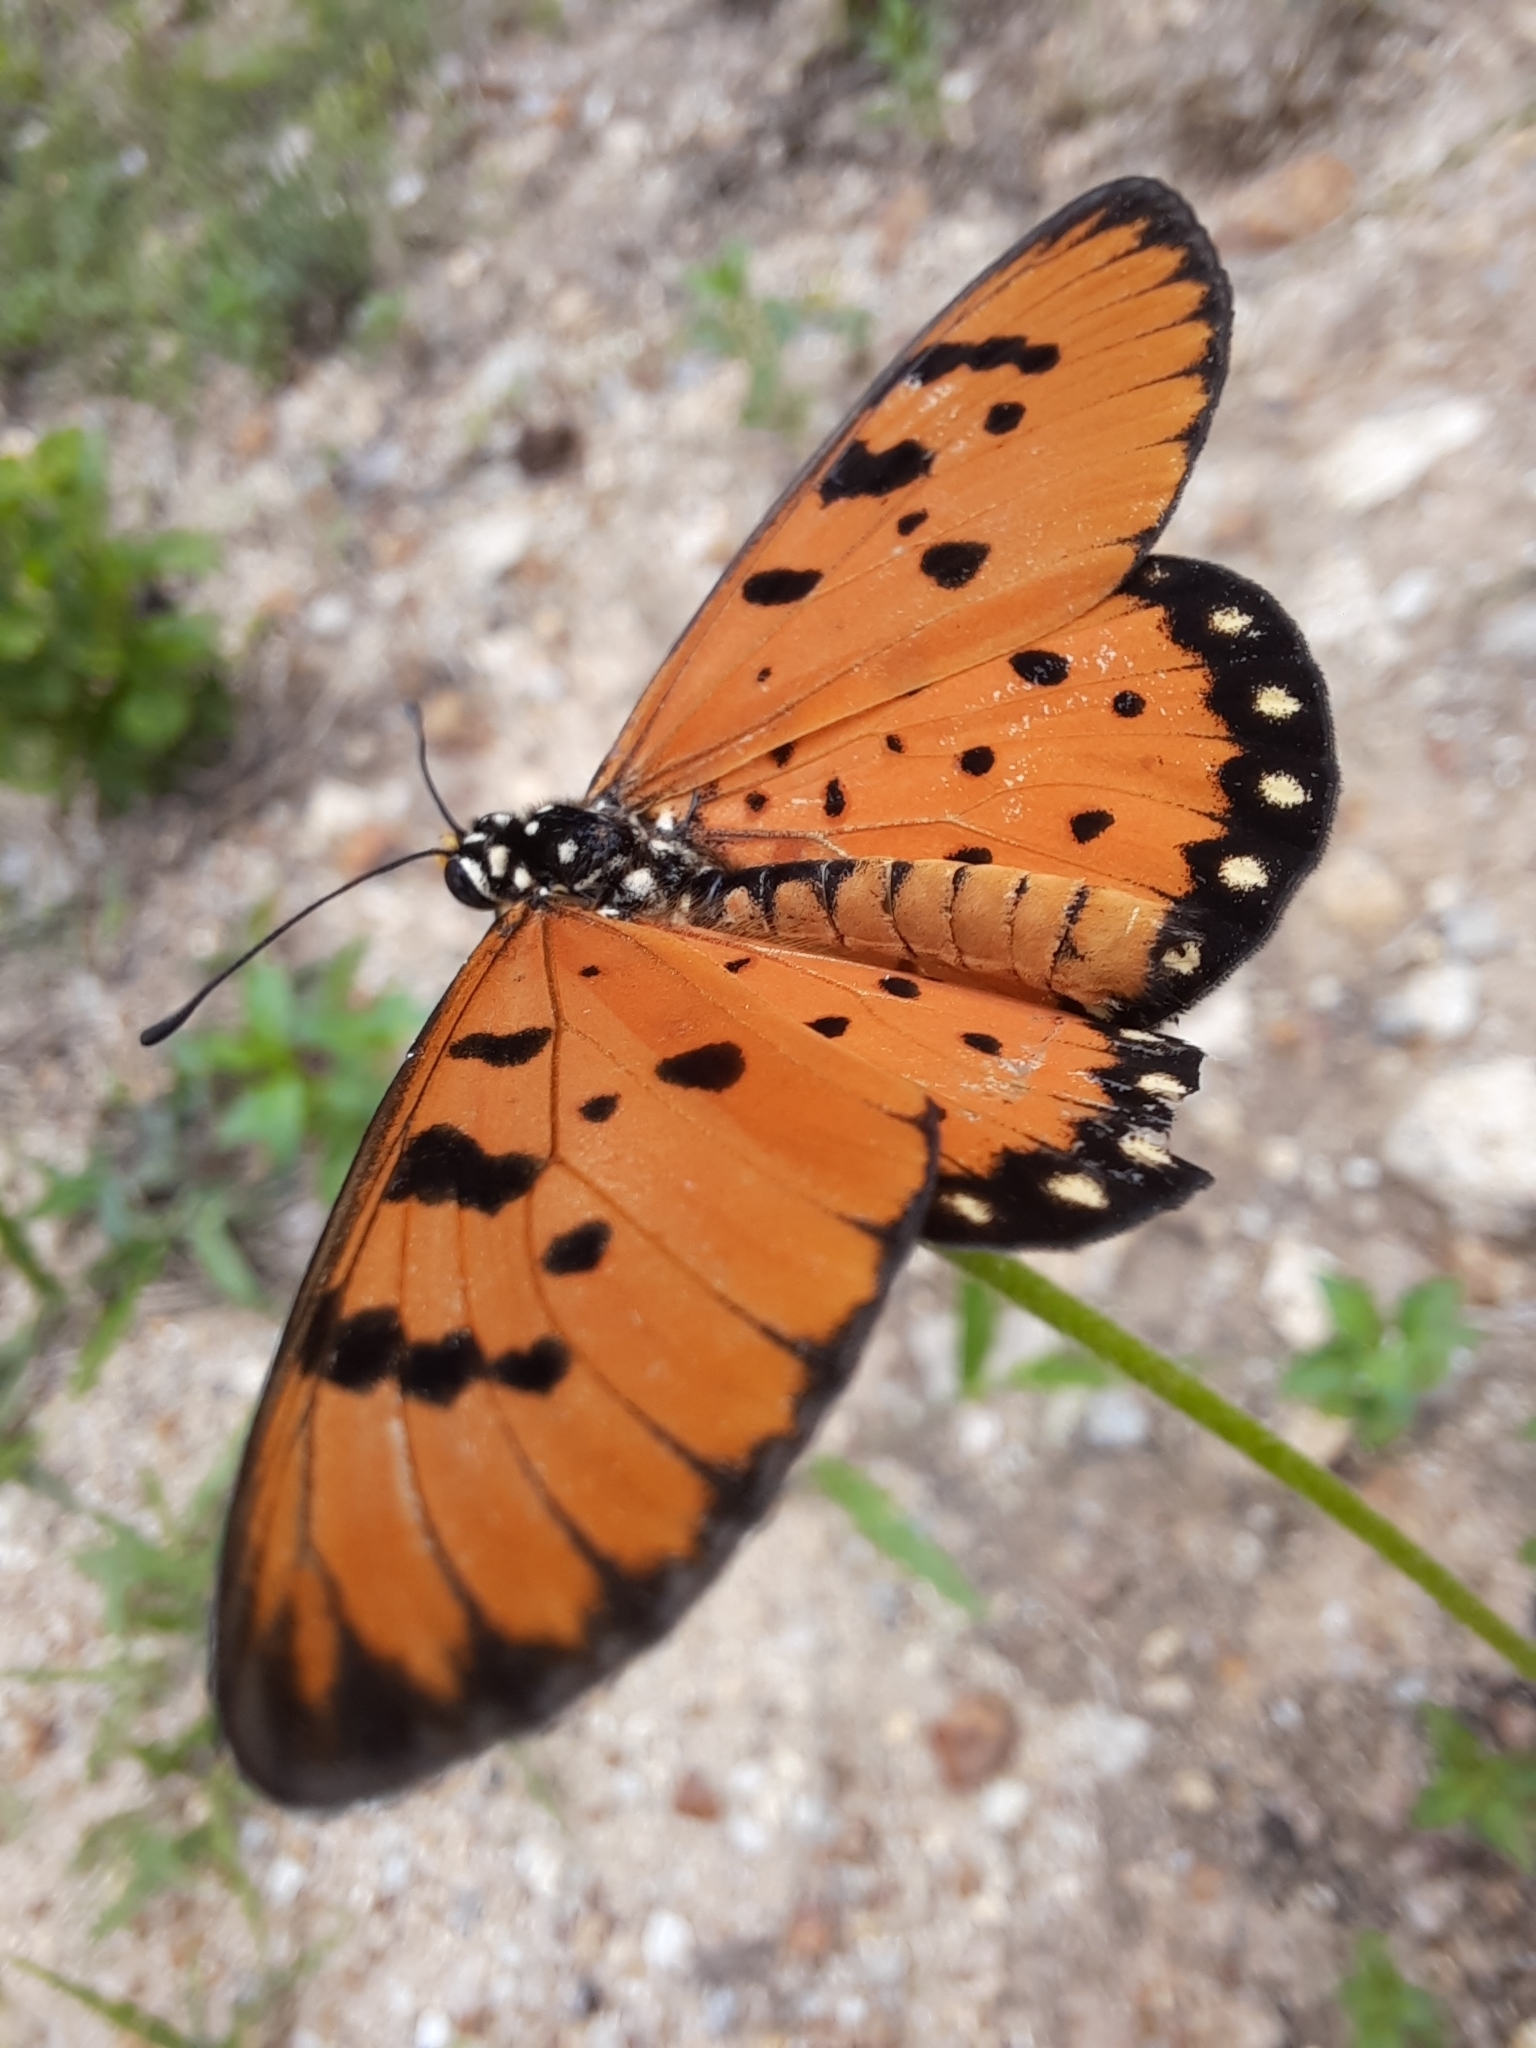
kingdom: Animalia
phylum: Arthropoda
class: Insecta
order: Lepidoptera
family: Nymphalidae
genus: Acraea
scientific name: Acraea terpsicore
